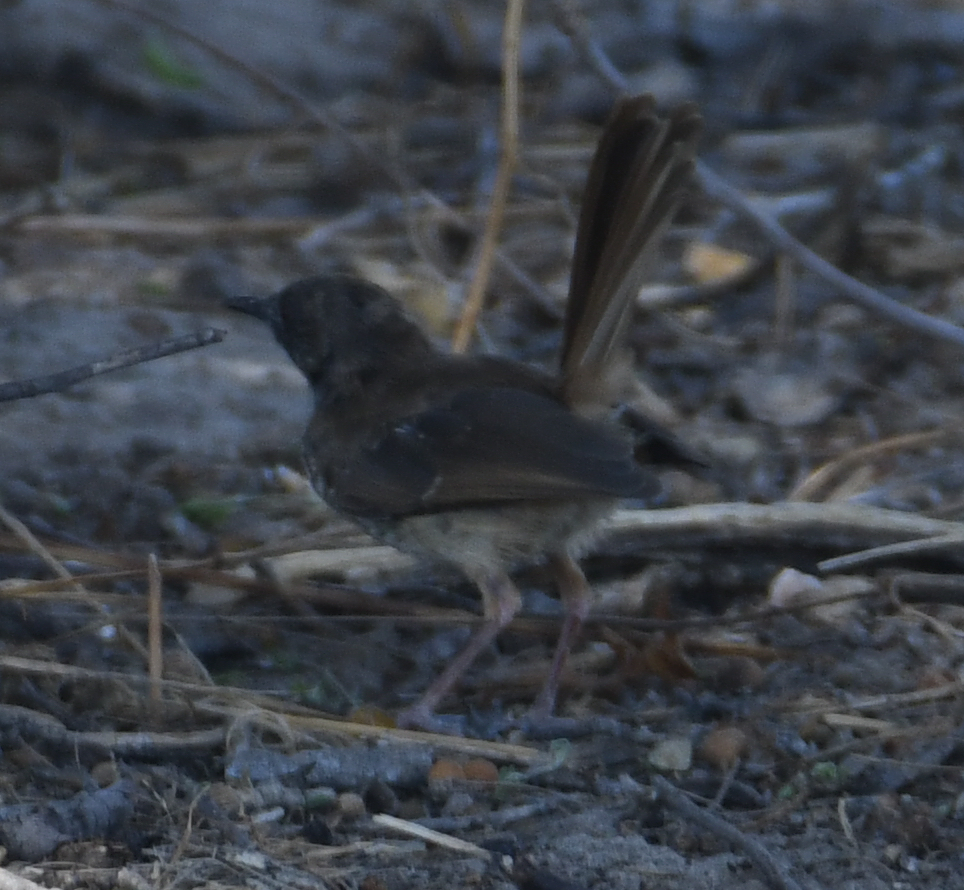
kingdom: Animalia
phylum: Chordata
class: Aves
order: Passeriformes
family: Cisticolidae
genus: Calamonastes
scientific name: Calamonastes fasciolatus
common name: Barred wren-warbler
